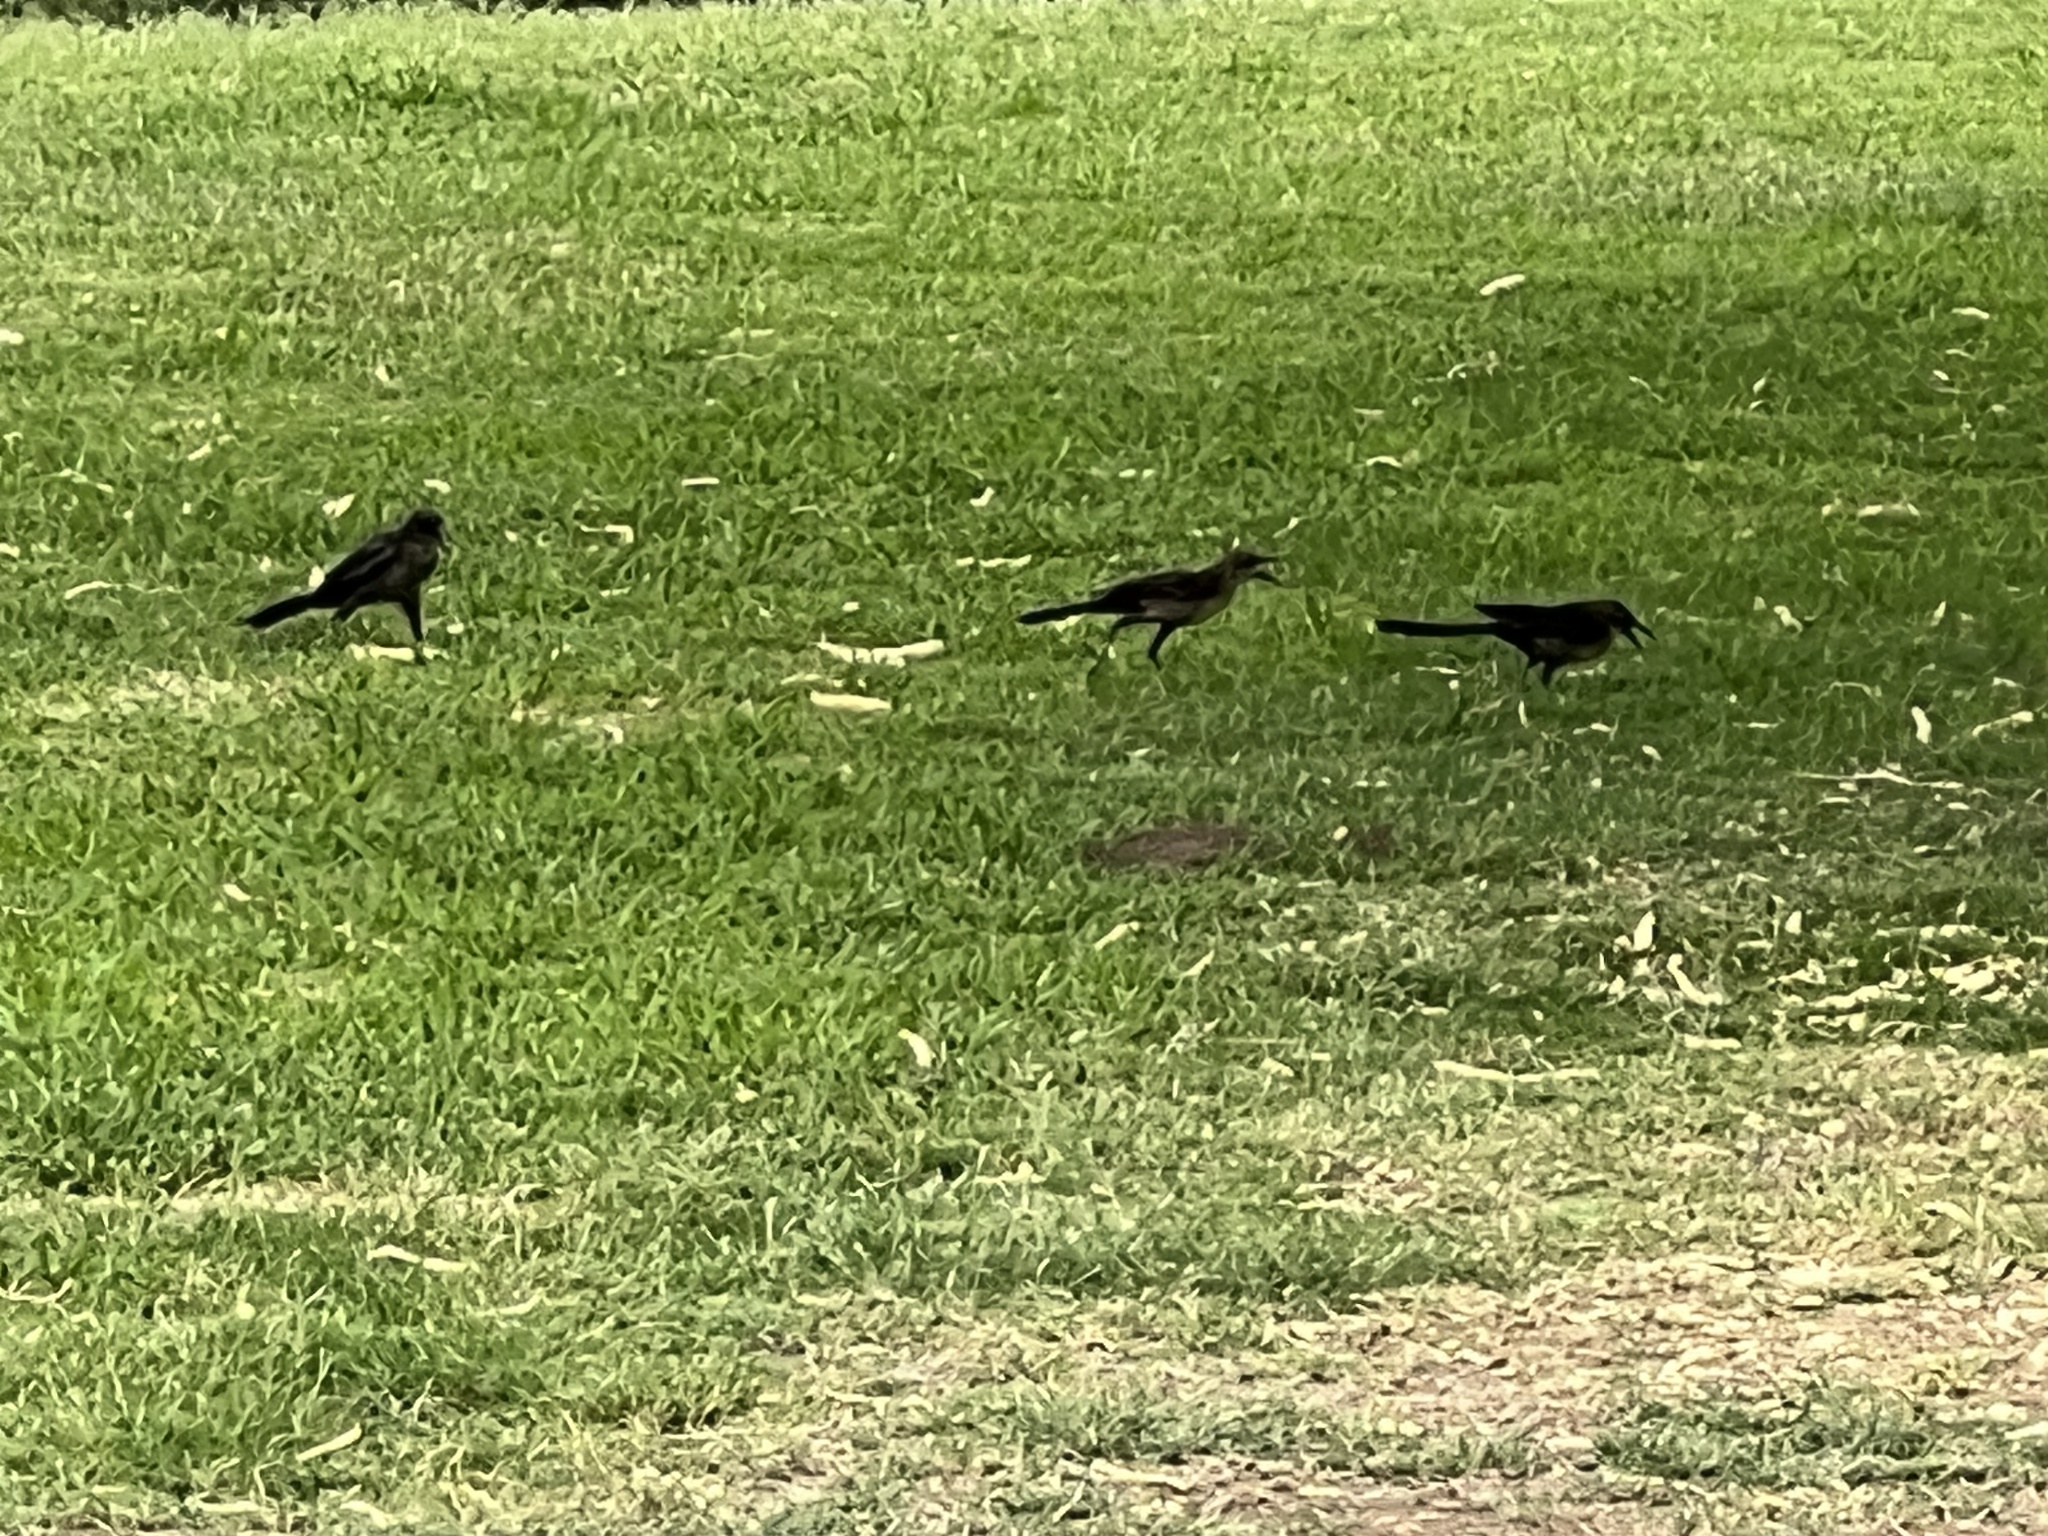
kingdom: Animalia
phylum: Chordata
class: Aves
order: Passeriformes
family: Icteridae
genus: Quiscalus
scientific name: Quiscalus mexicanus
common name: Great-tailed grackle
